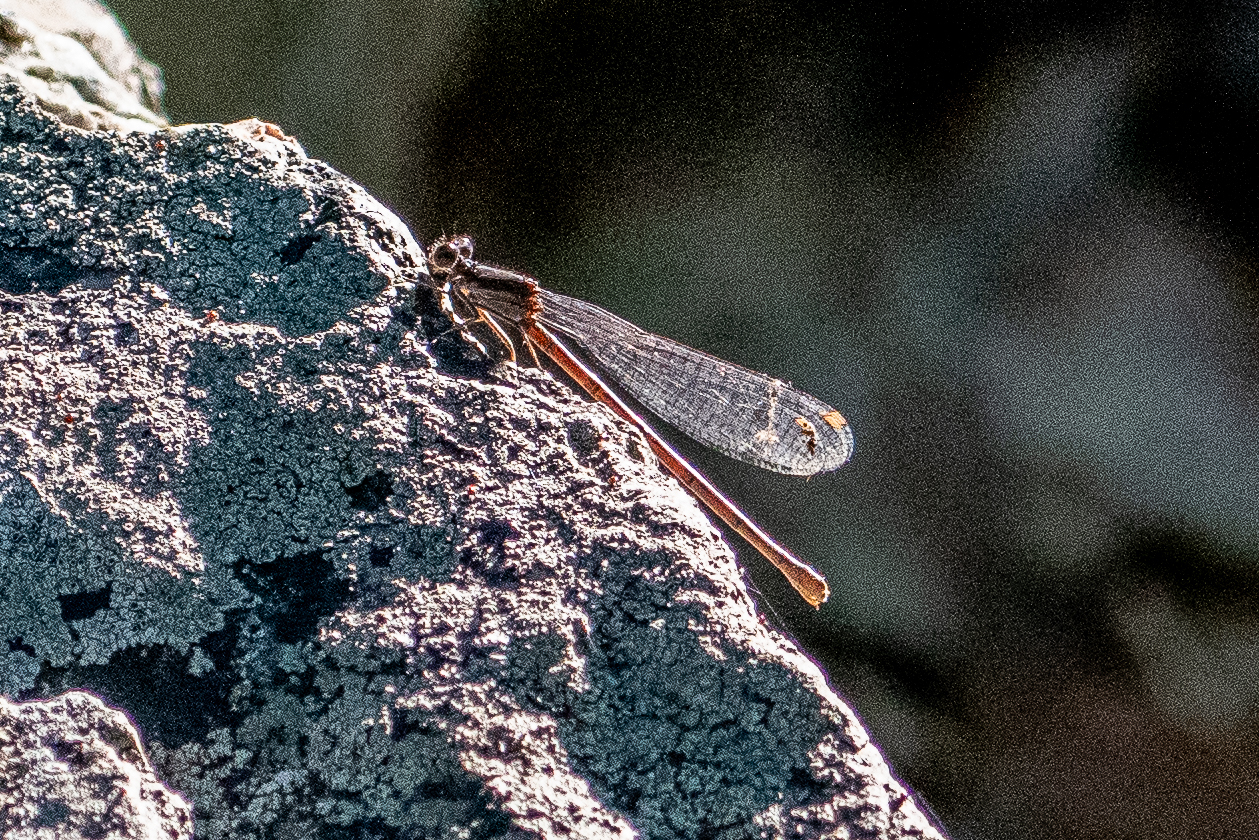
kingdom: Animalia
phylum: Arthropoda
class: Insecta
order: Odonata
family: Coenagrionidae
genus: Argia
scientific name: Argia fumipennis
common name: Variable dancer
